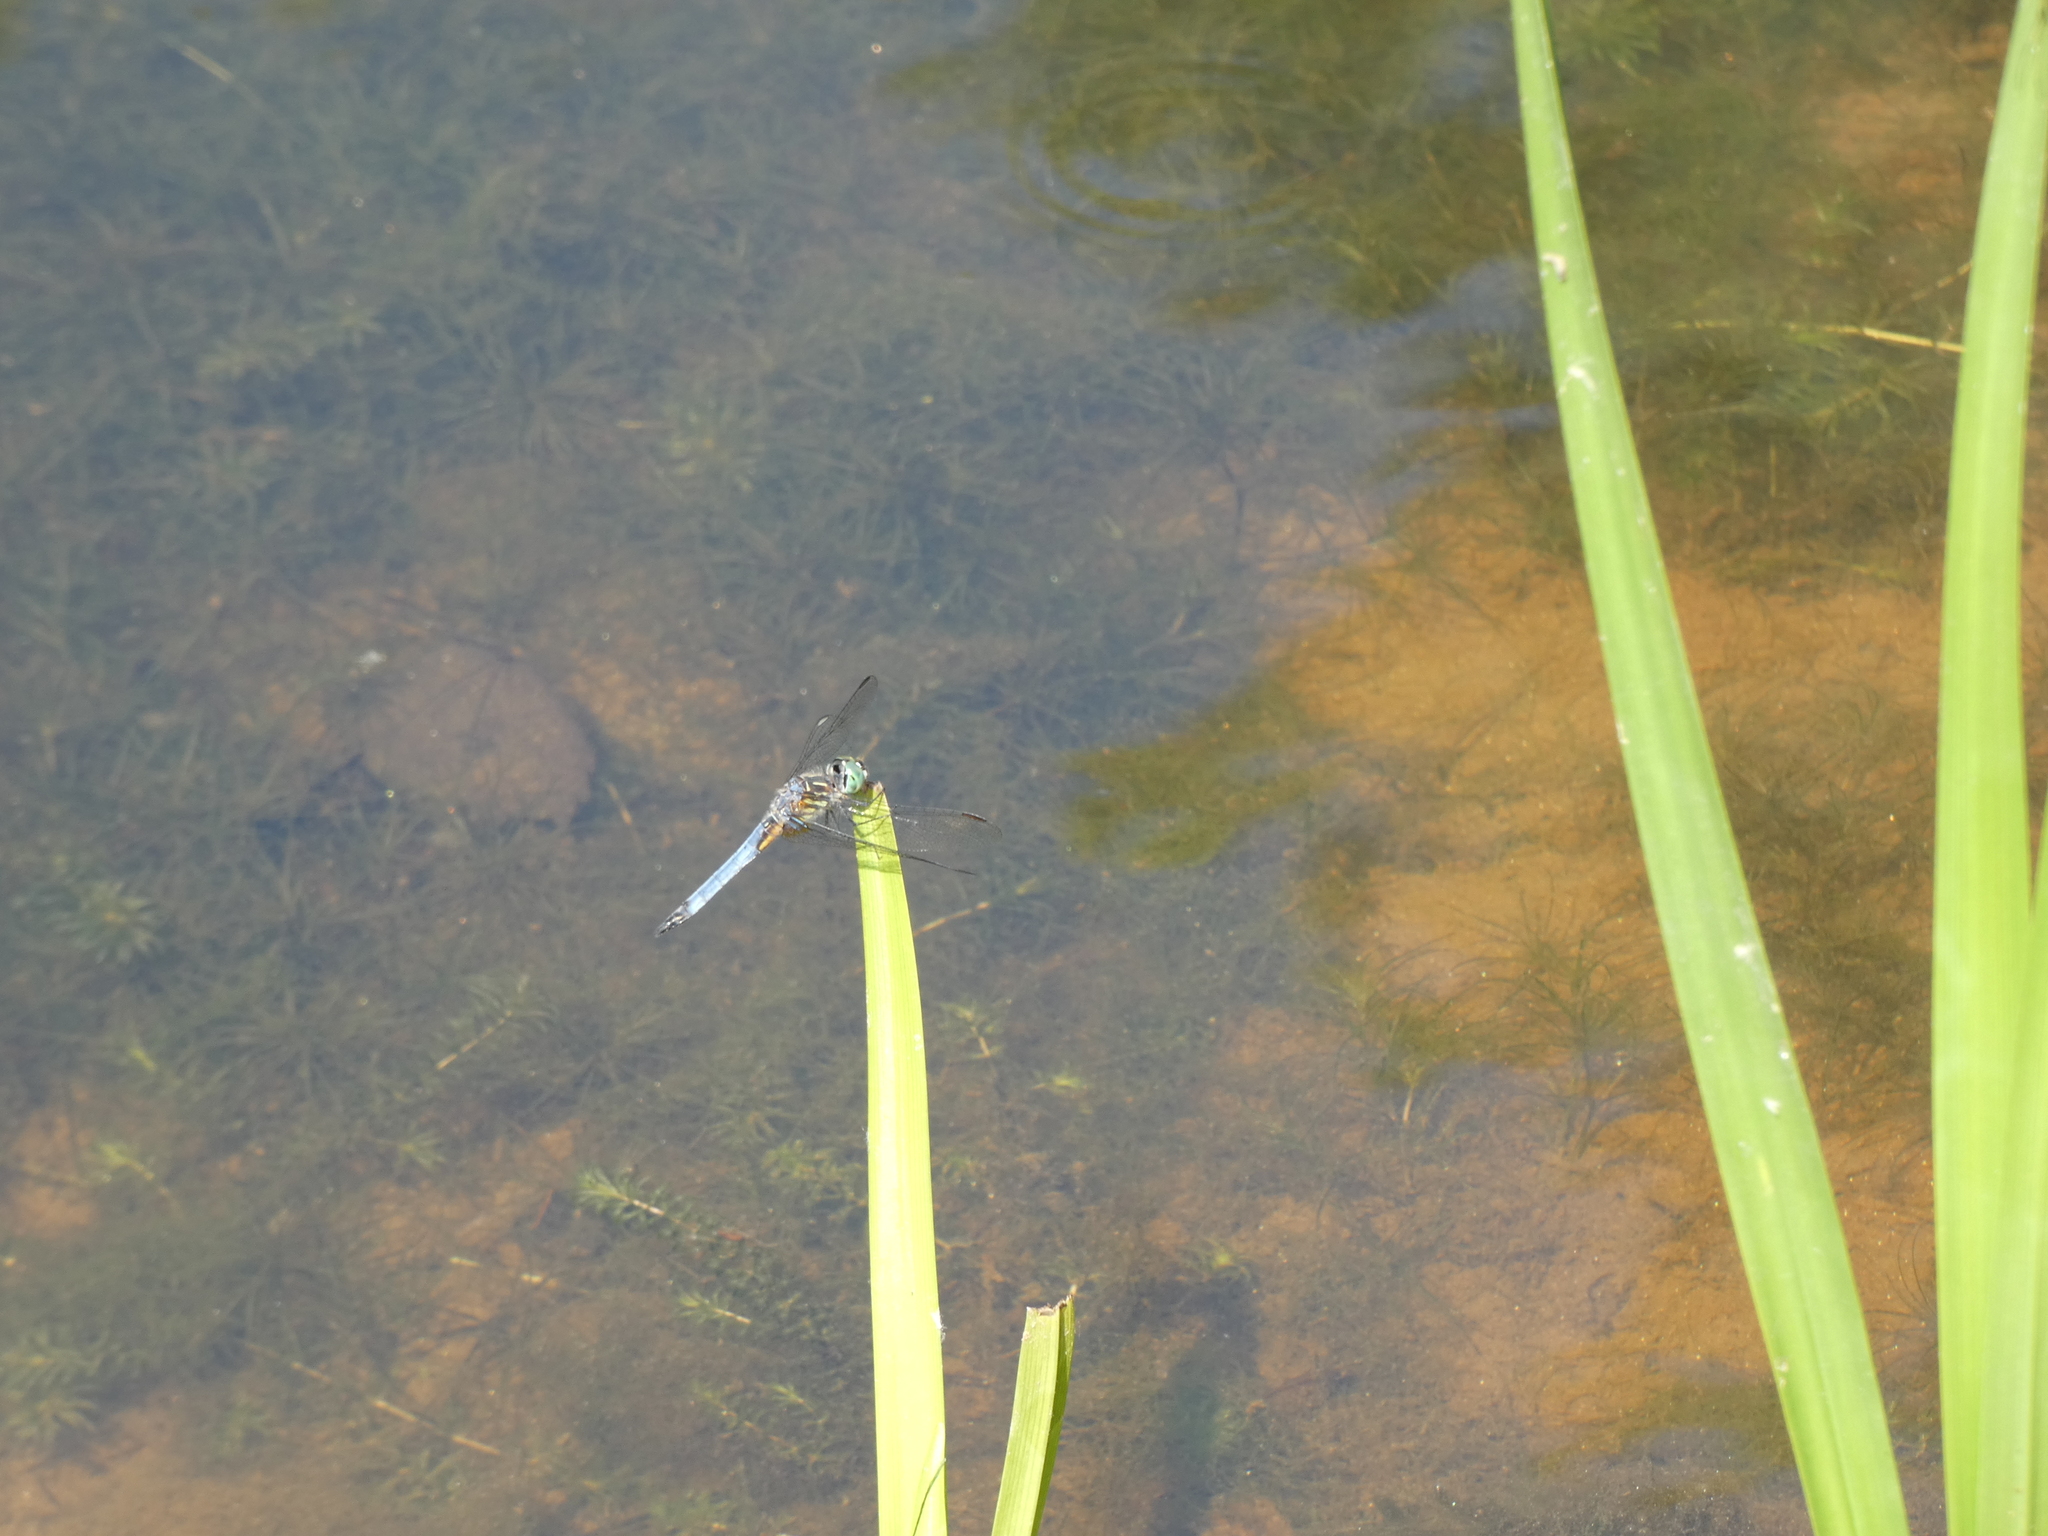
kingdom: Animalia
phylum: Arthropoda
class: Insecta
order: Odonata
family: Libellulidae
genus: Pachydiplax
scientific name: Pachydiplax longipennis
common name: Blue dasher
